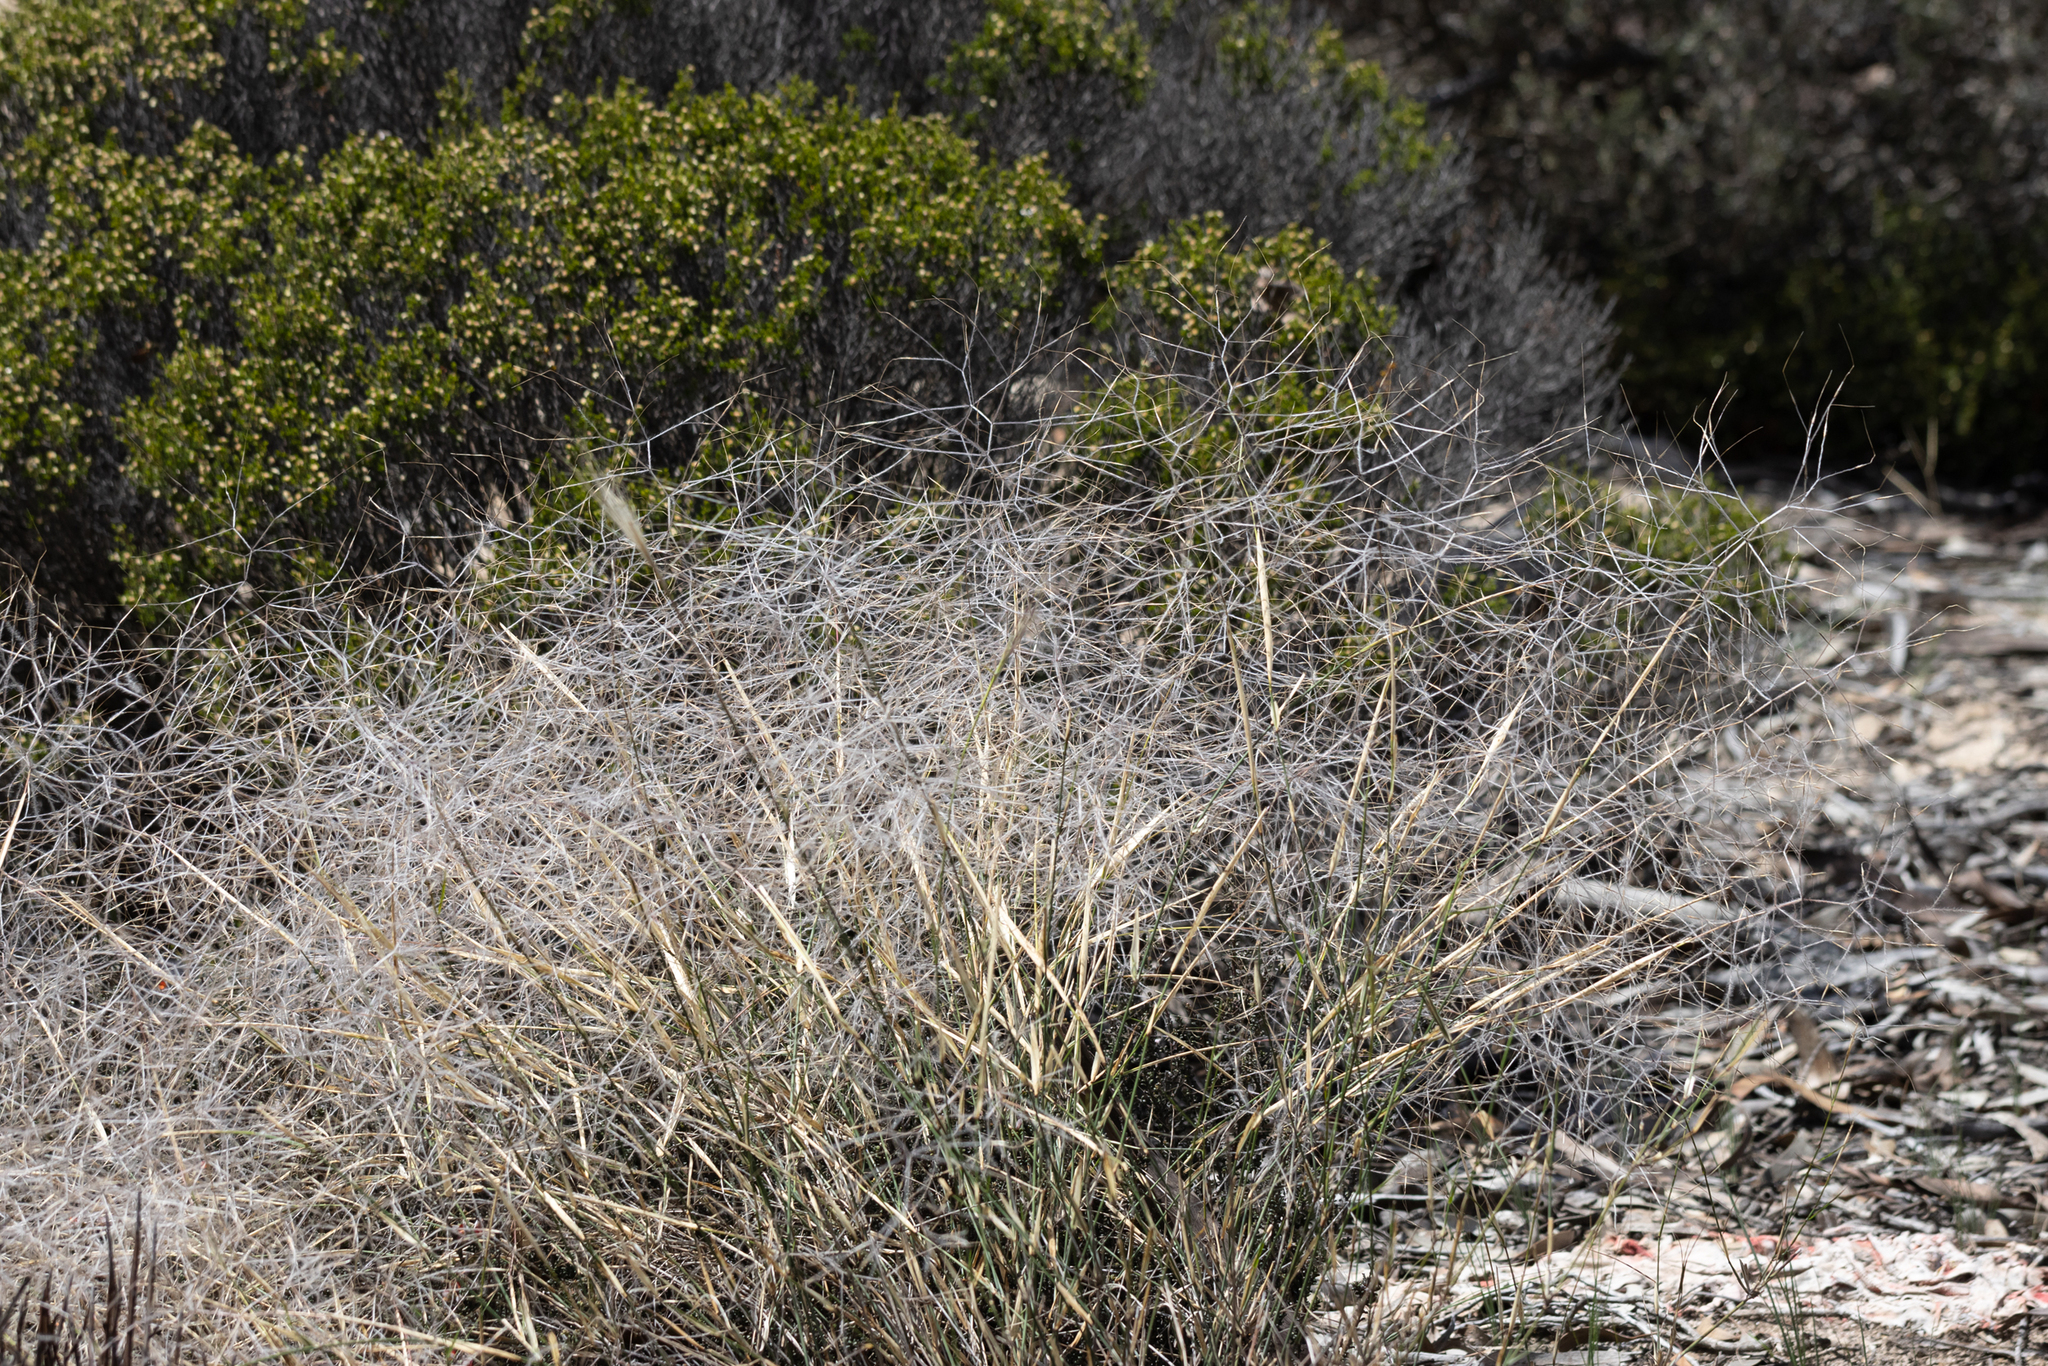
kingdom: Plantae
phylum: Tracheophyta
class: Liliopsida
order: Poales
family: Poaceae
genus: Austrostipa
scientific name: Austrostipa elegantissima
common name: Feather spear grass
